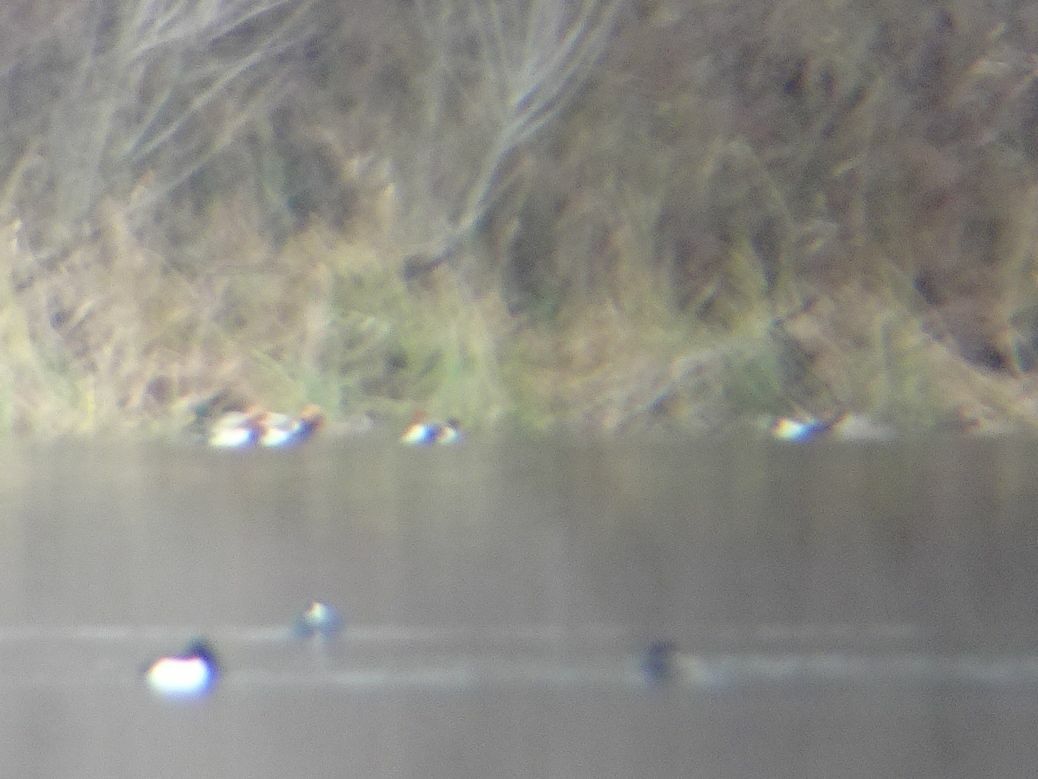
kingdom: Animalia
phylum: Chordata
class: Aves
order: Anseriformes
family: Anatidae
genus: Netta
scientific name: Netta rufina
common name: Red-crested pochard
